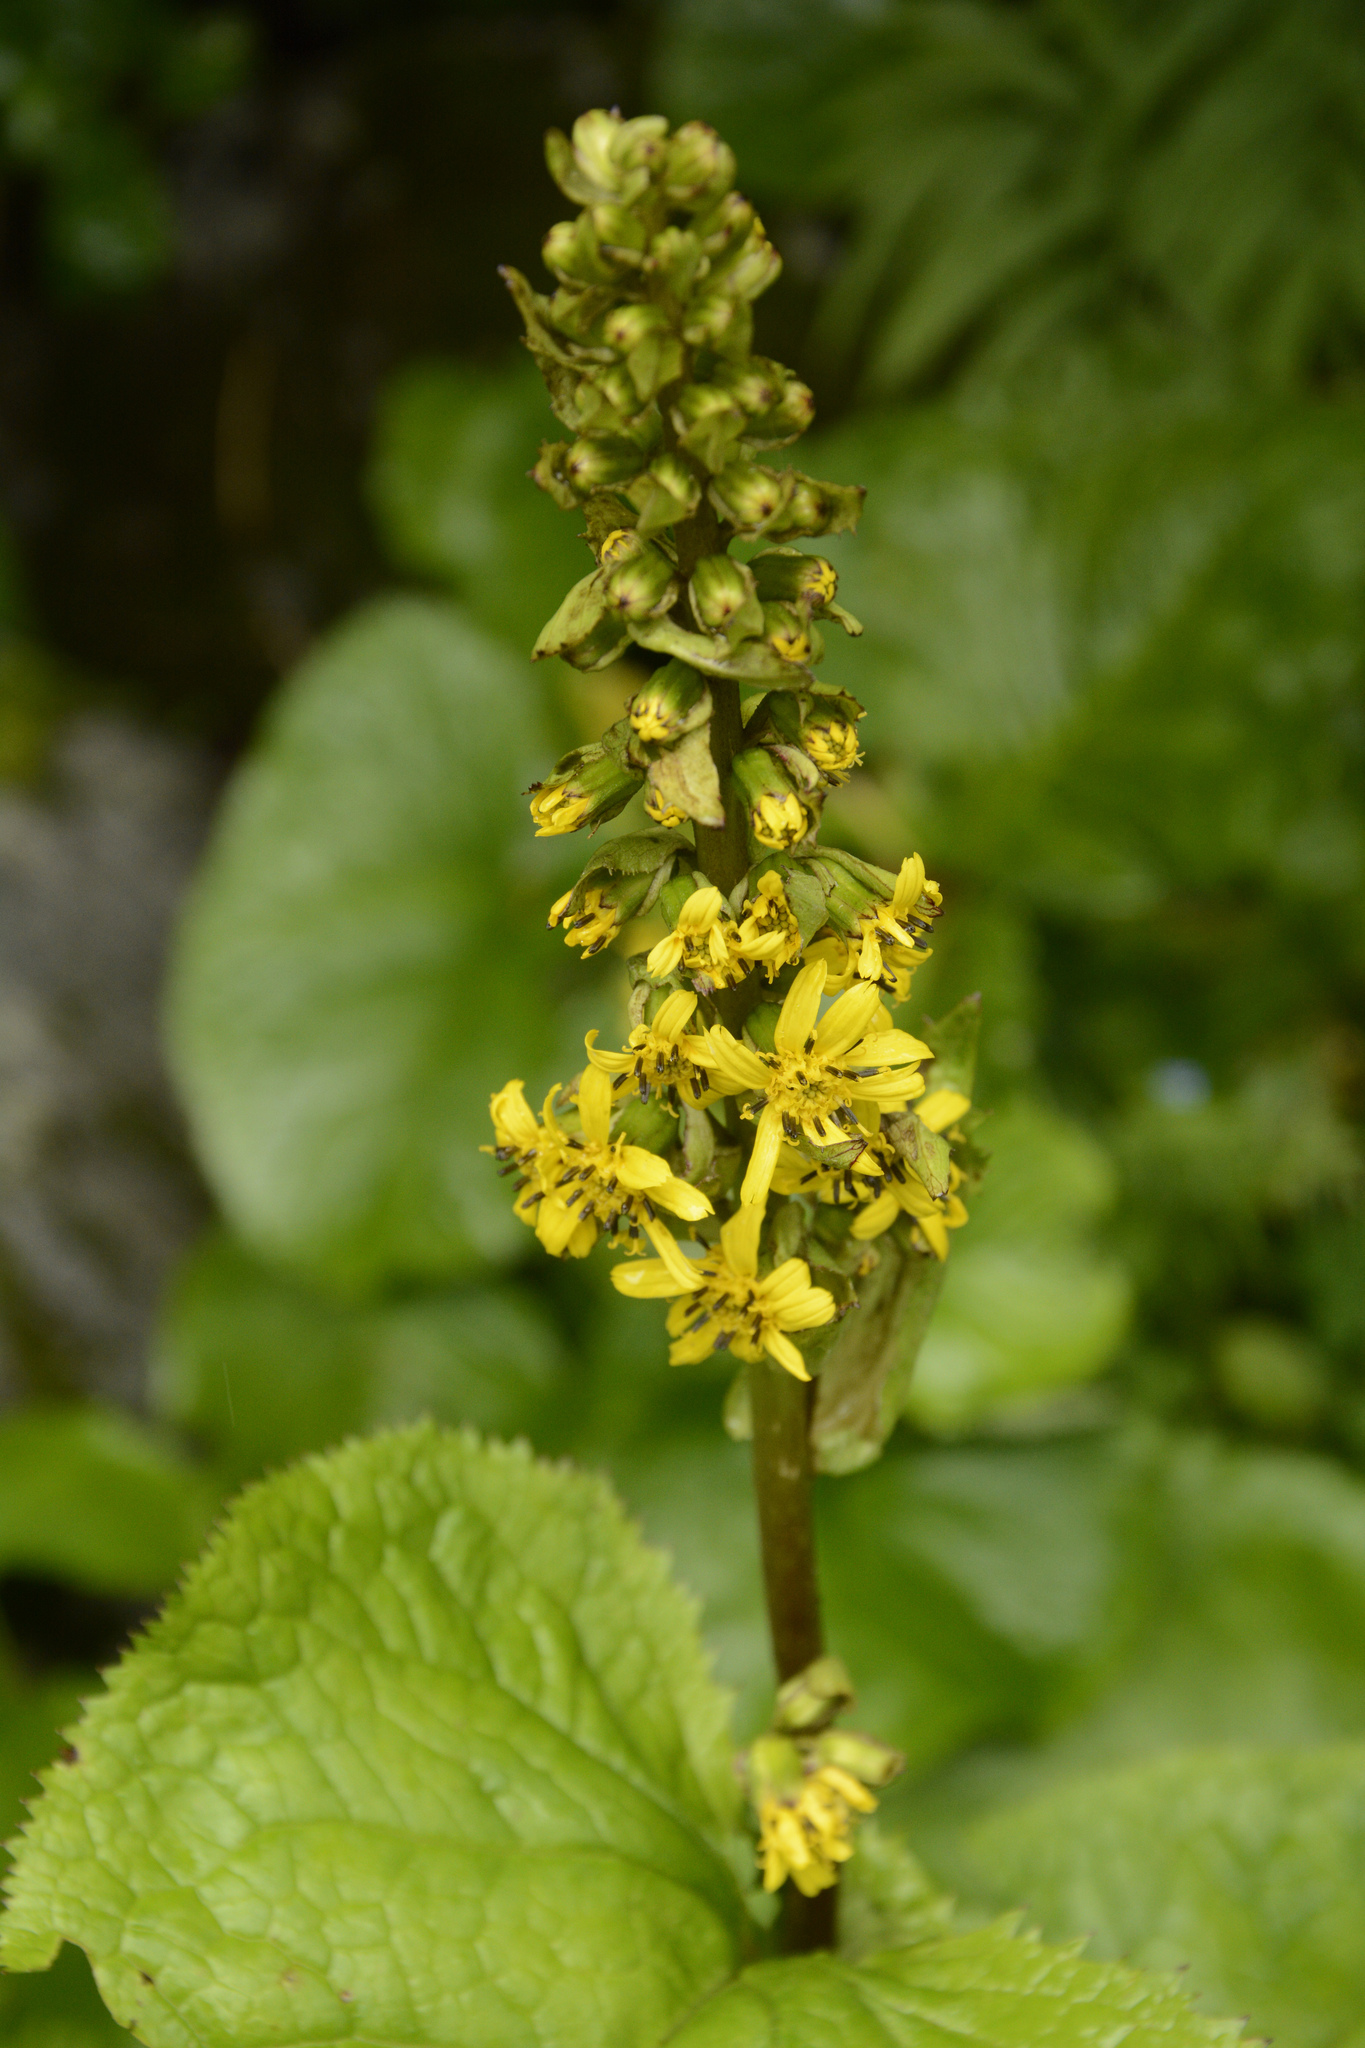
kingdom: Plantae
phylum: Tracheophyta
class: Magnoliopsida
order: Asterales
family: Asteraceae
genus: Ligularia
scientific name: Ligularia jacquemontiana
